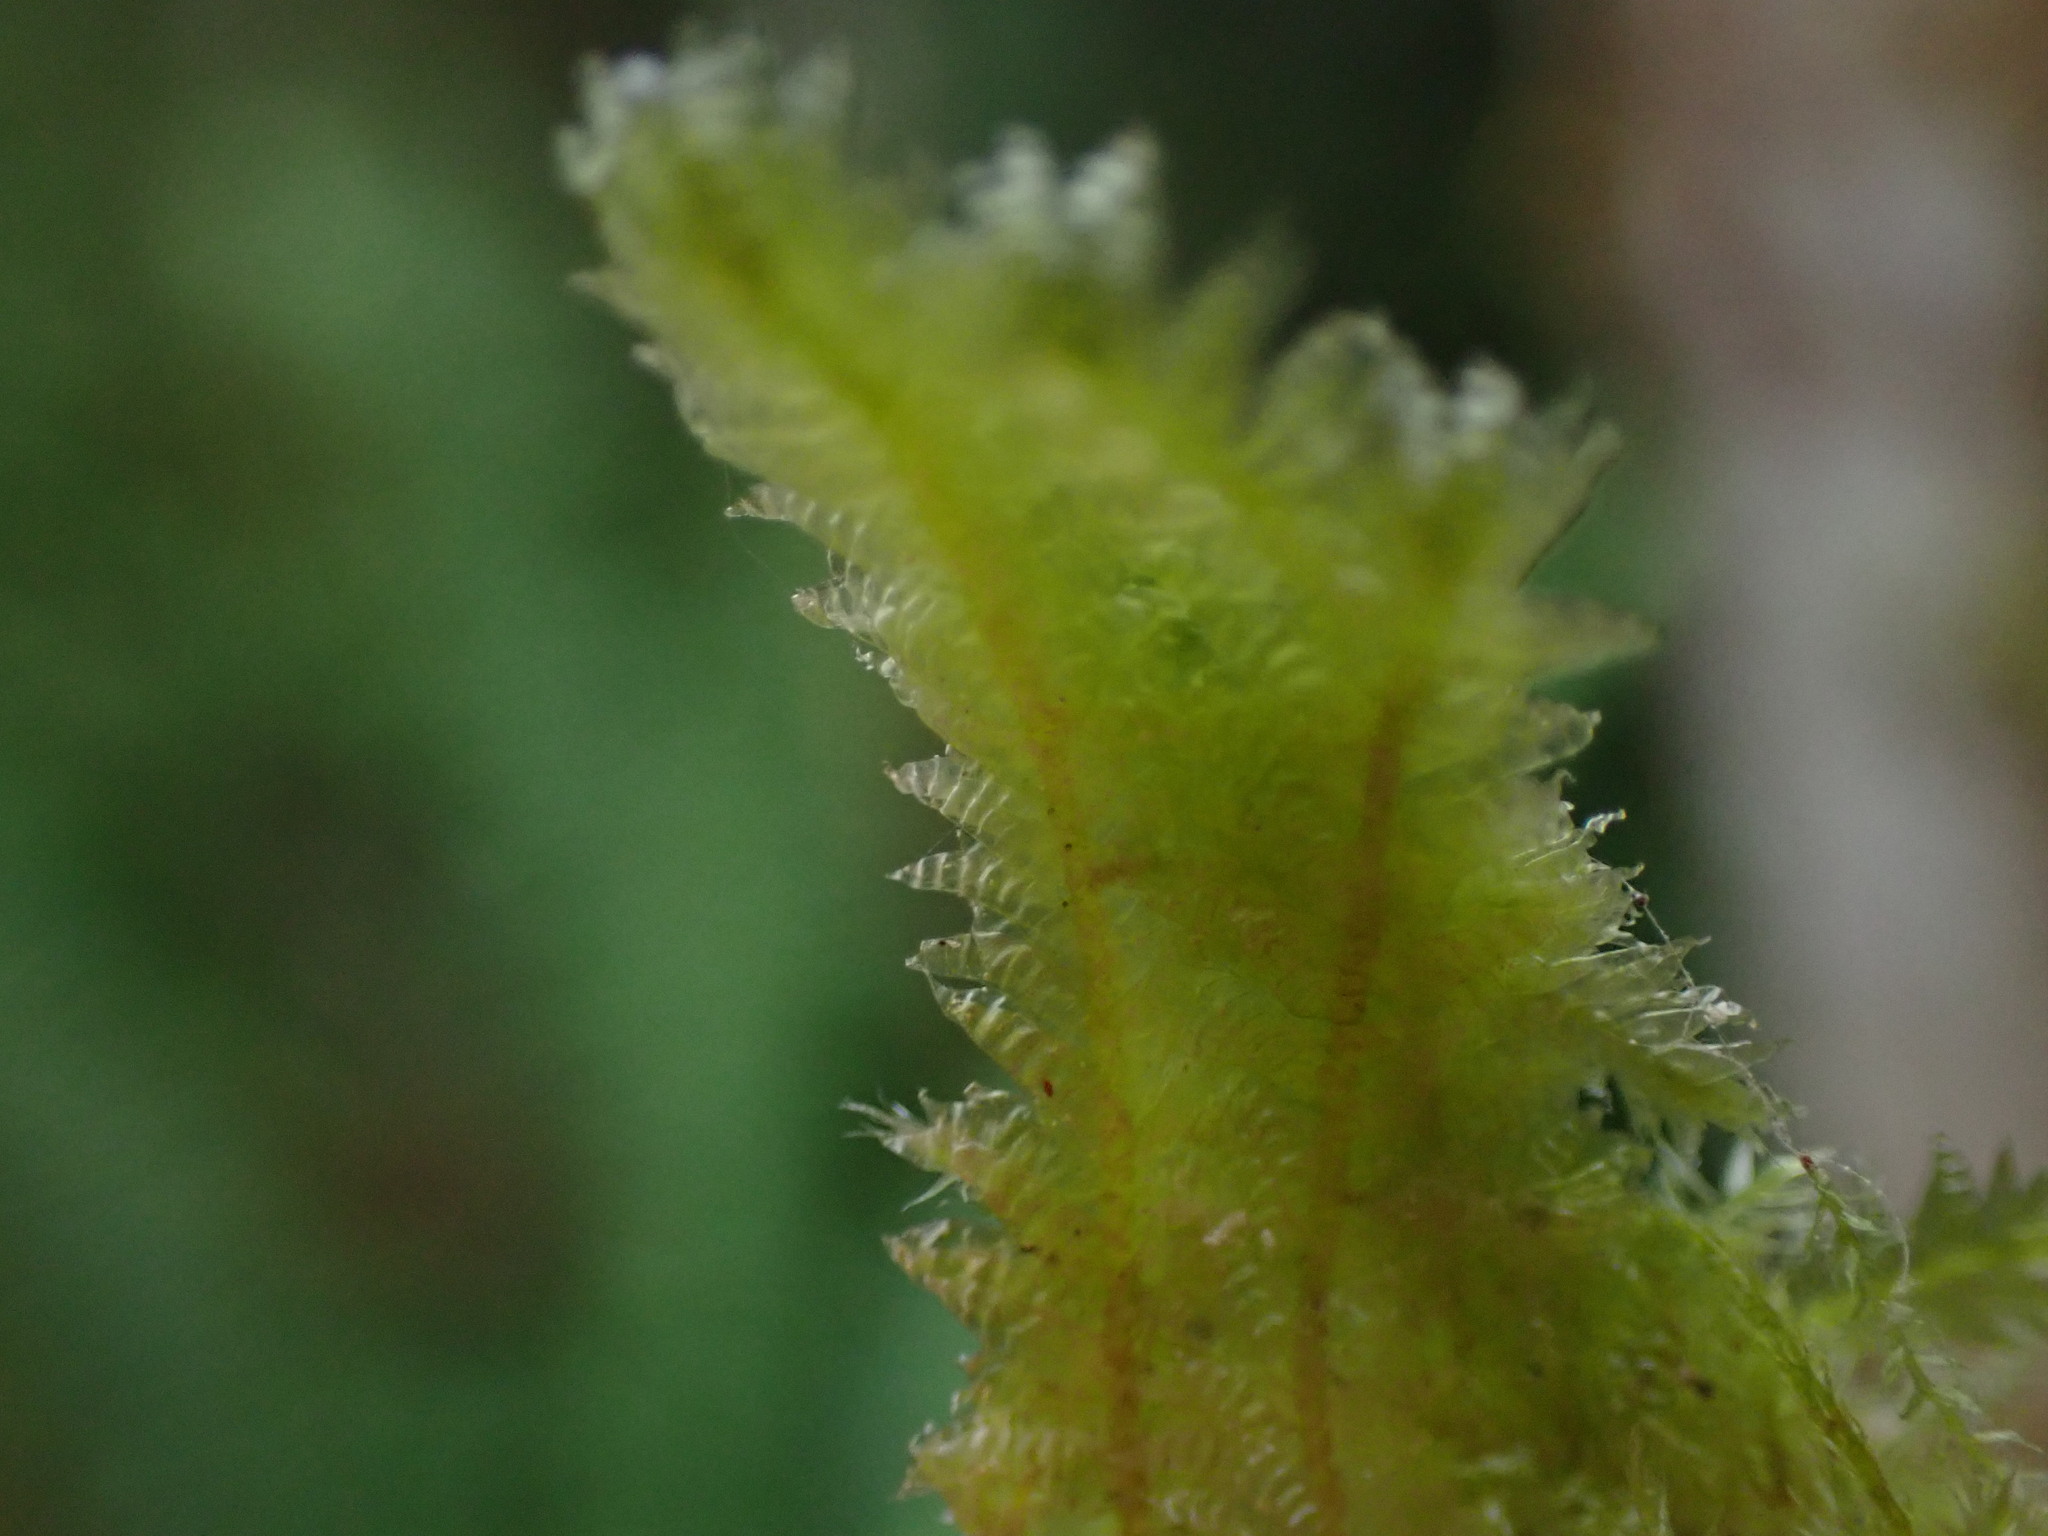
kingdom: Plantae
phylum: Bryophyta
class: Bryopsida
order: Hypnales
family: Neckeraceae
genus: Neckera
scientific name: Neckera douglasii
